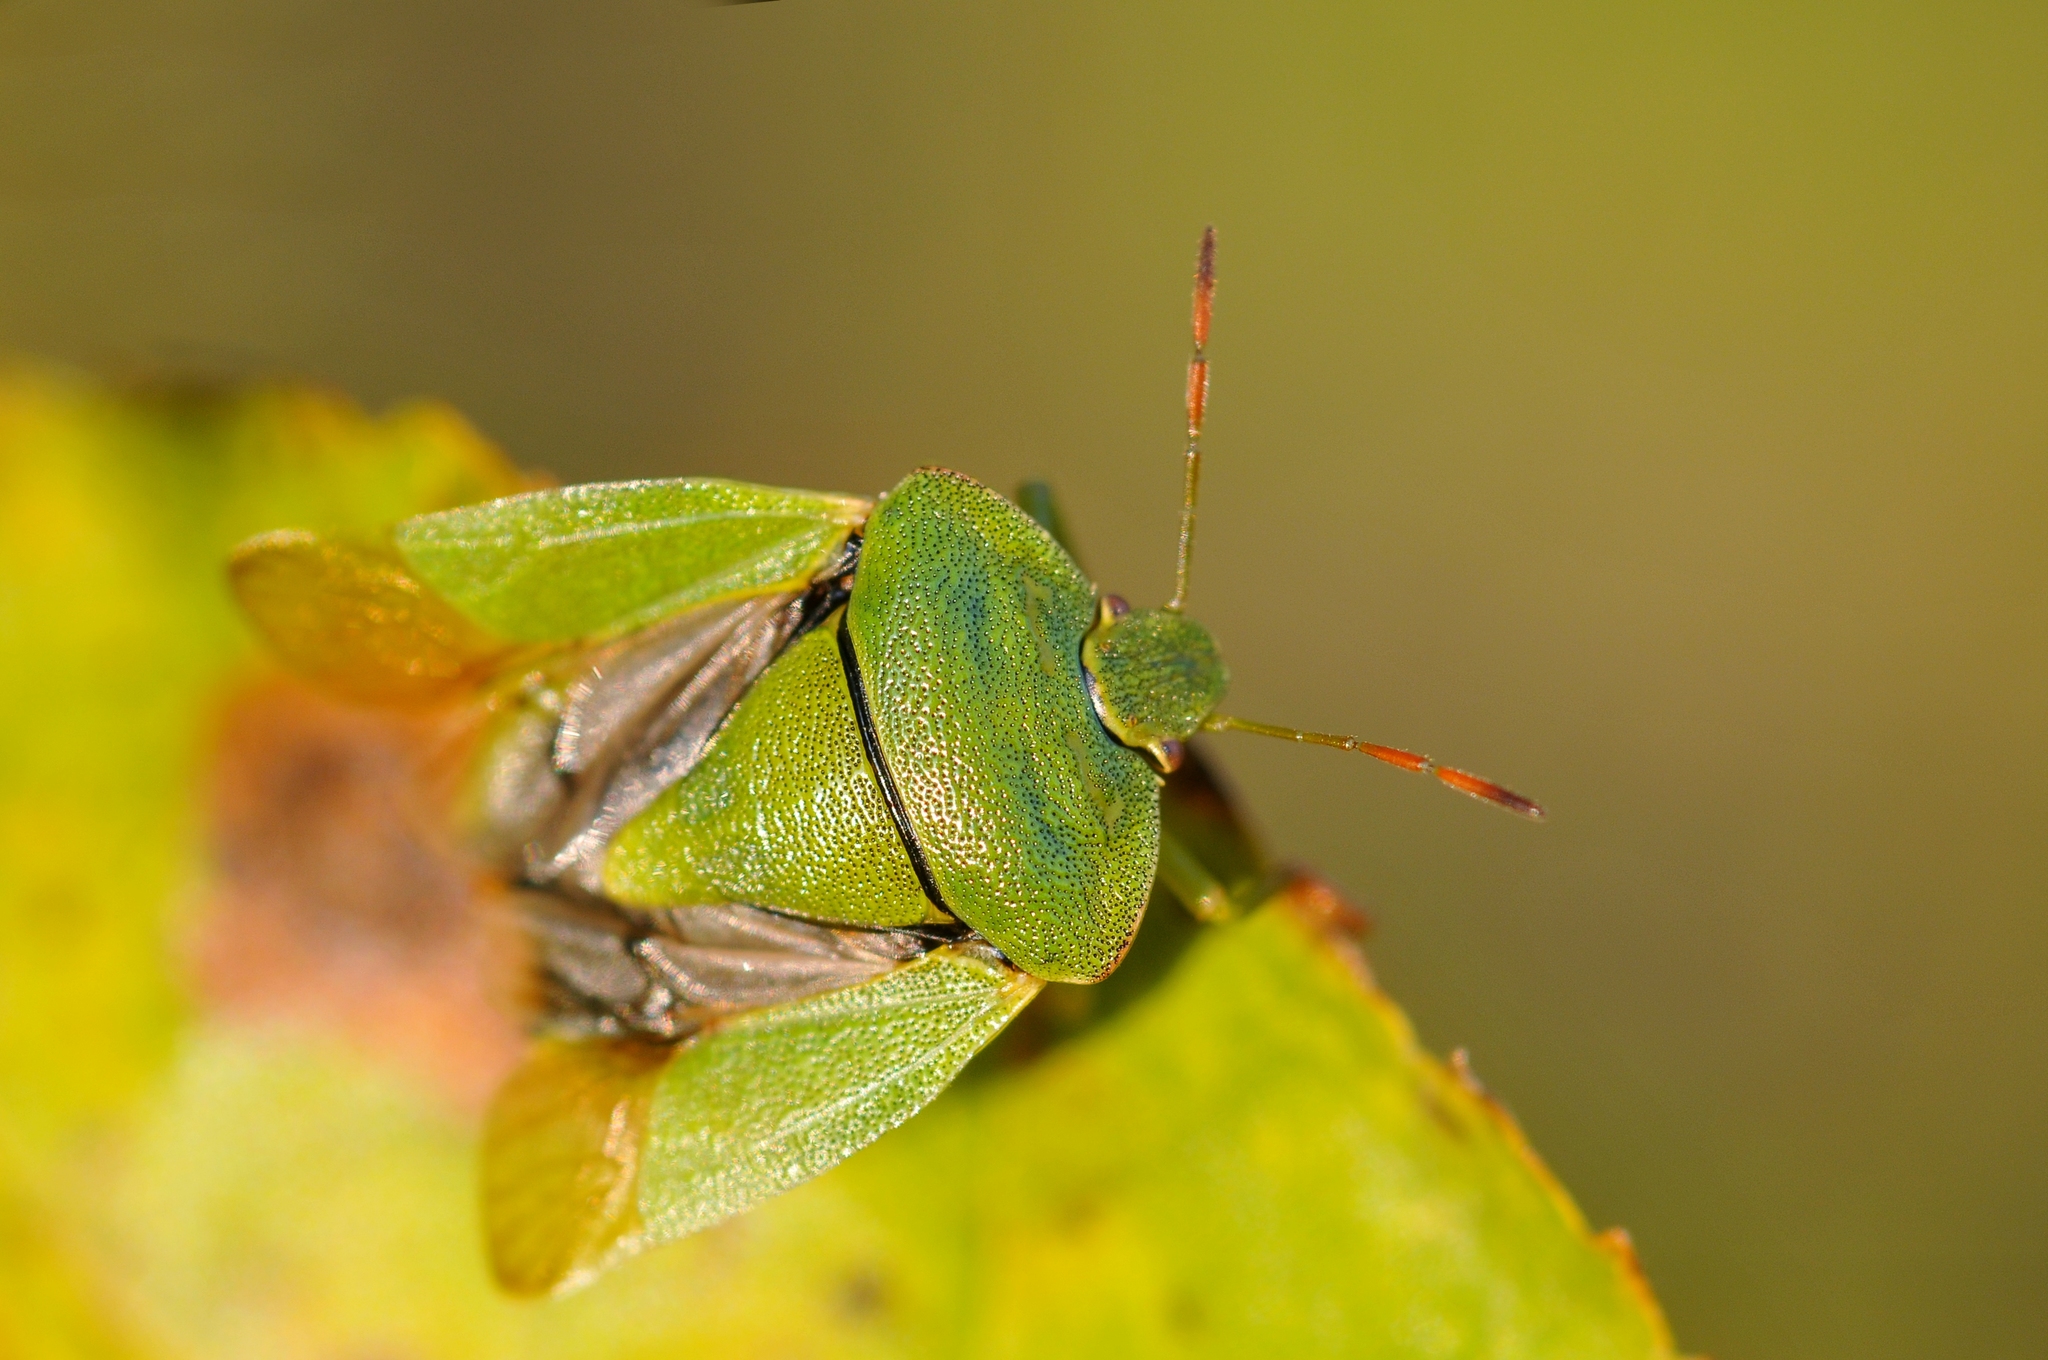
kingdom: Animalia
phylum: Arthropoda
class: Insecta
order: Hemiptera
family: Pentatomidae
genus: Palomena
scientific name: Palomena viridissima
